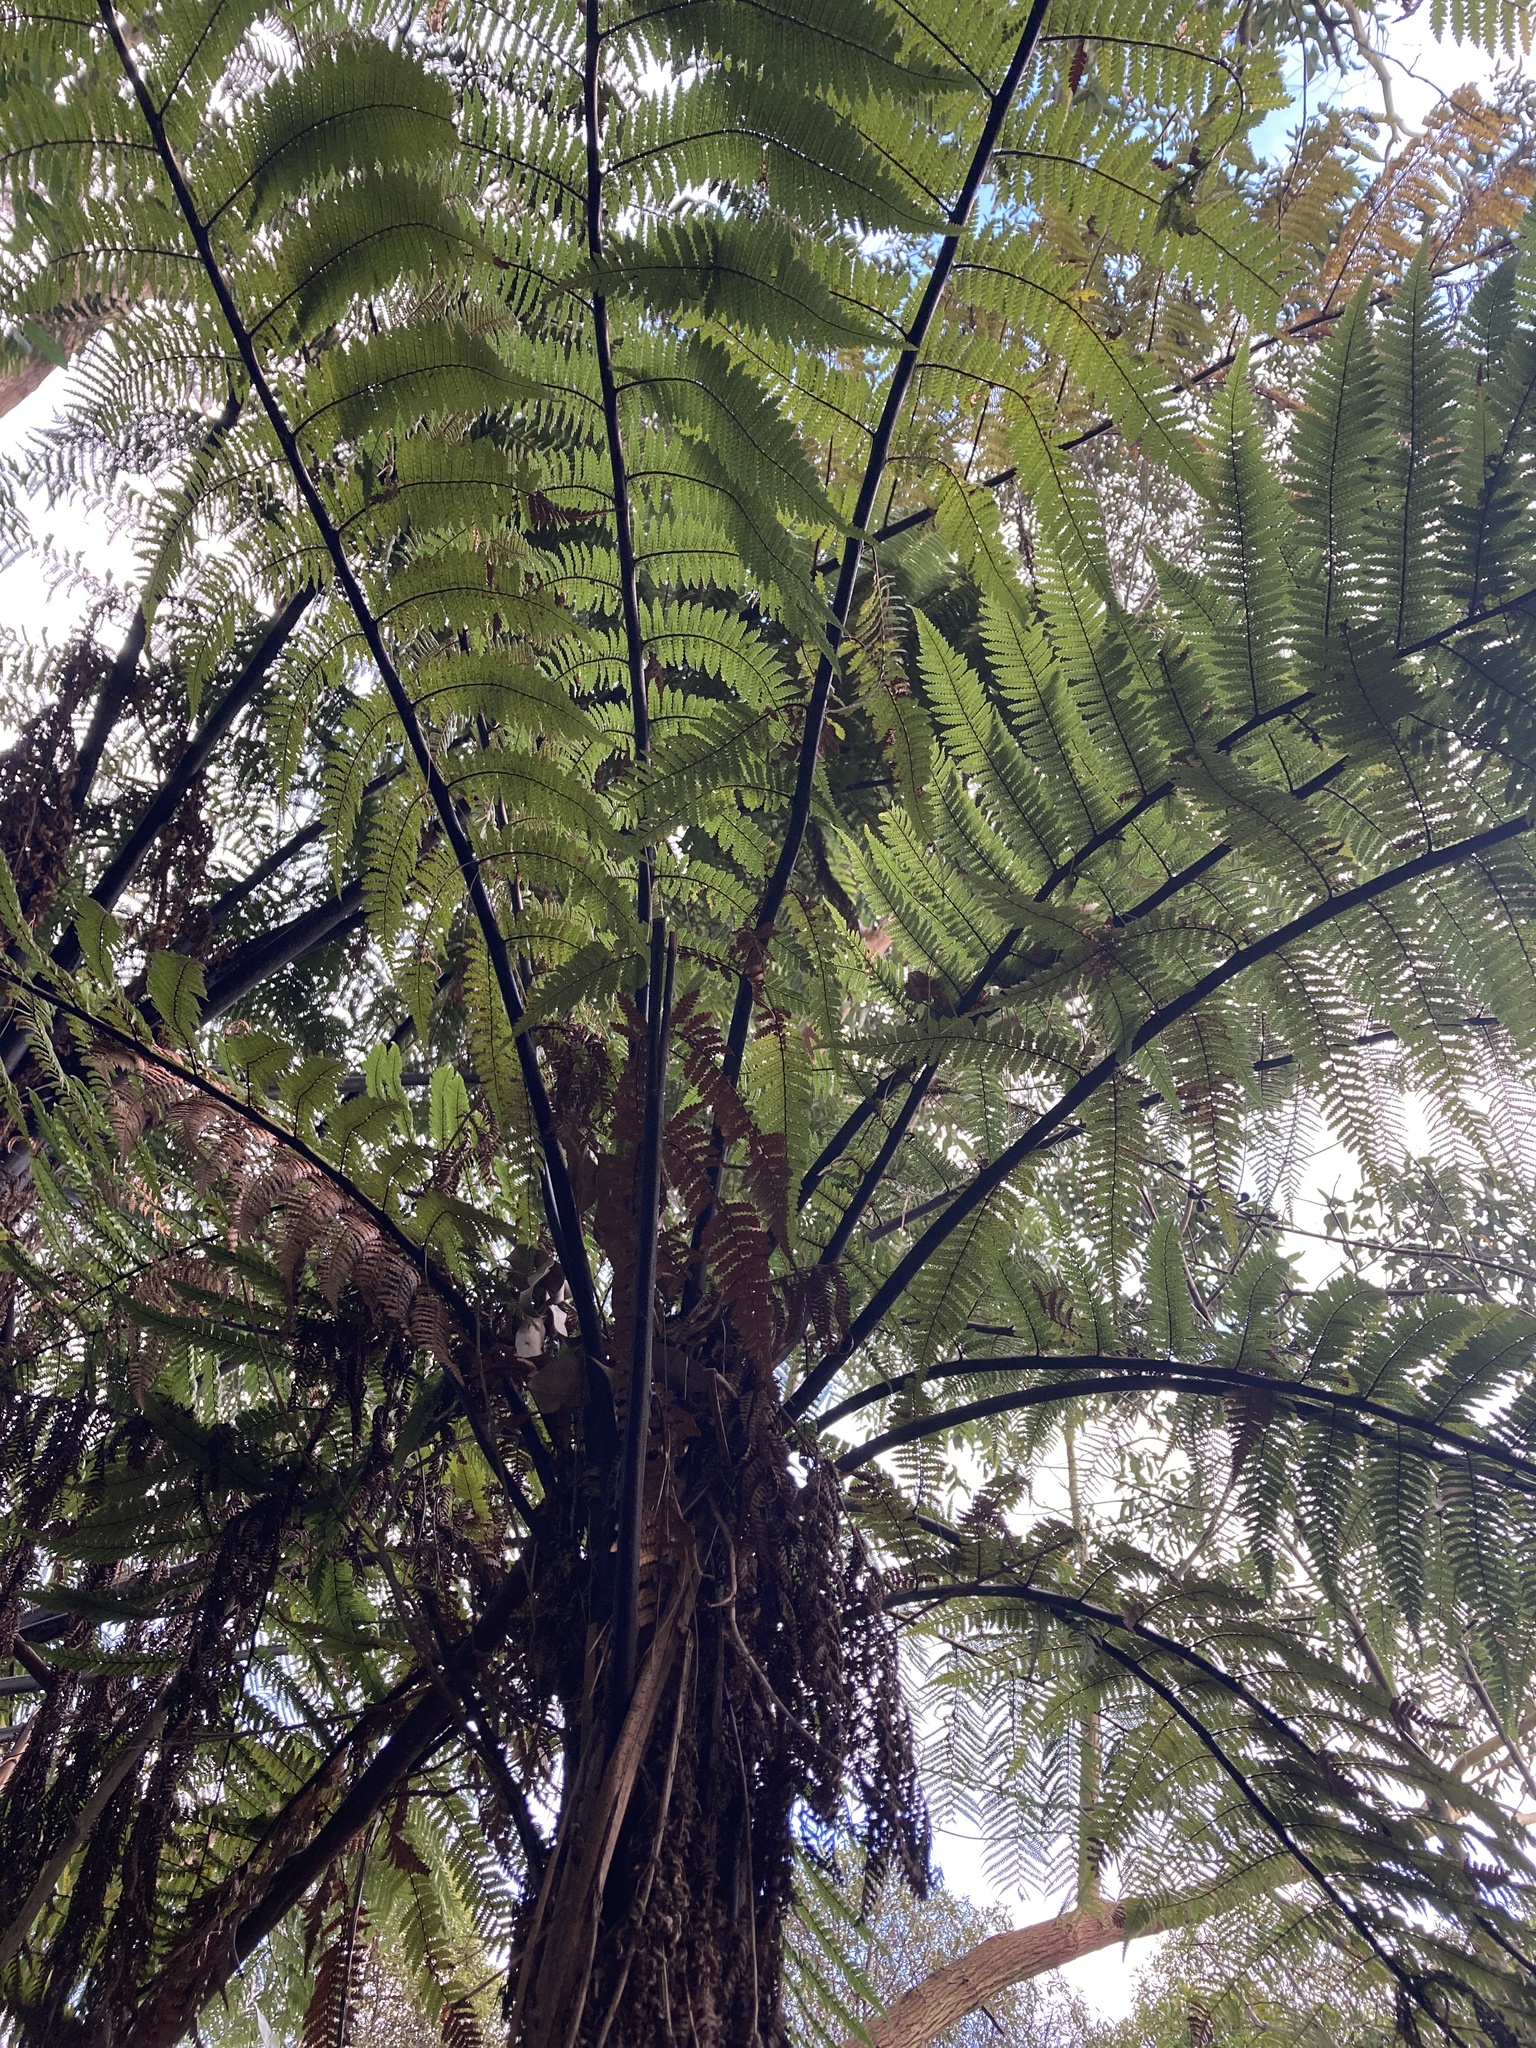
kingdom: Plantae
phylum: Tracheophyta
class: Polypodiopsida
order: Cyatheales
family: Dicksoniaceae
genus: Dicksonia
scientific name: Dicksonia squarrosa
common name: Hard treefern
